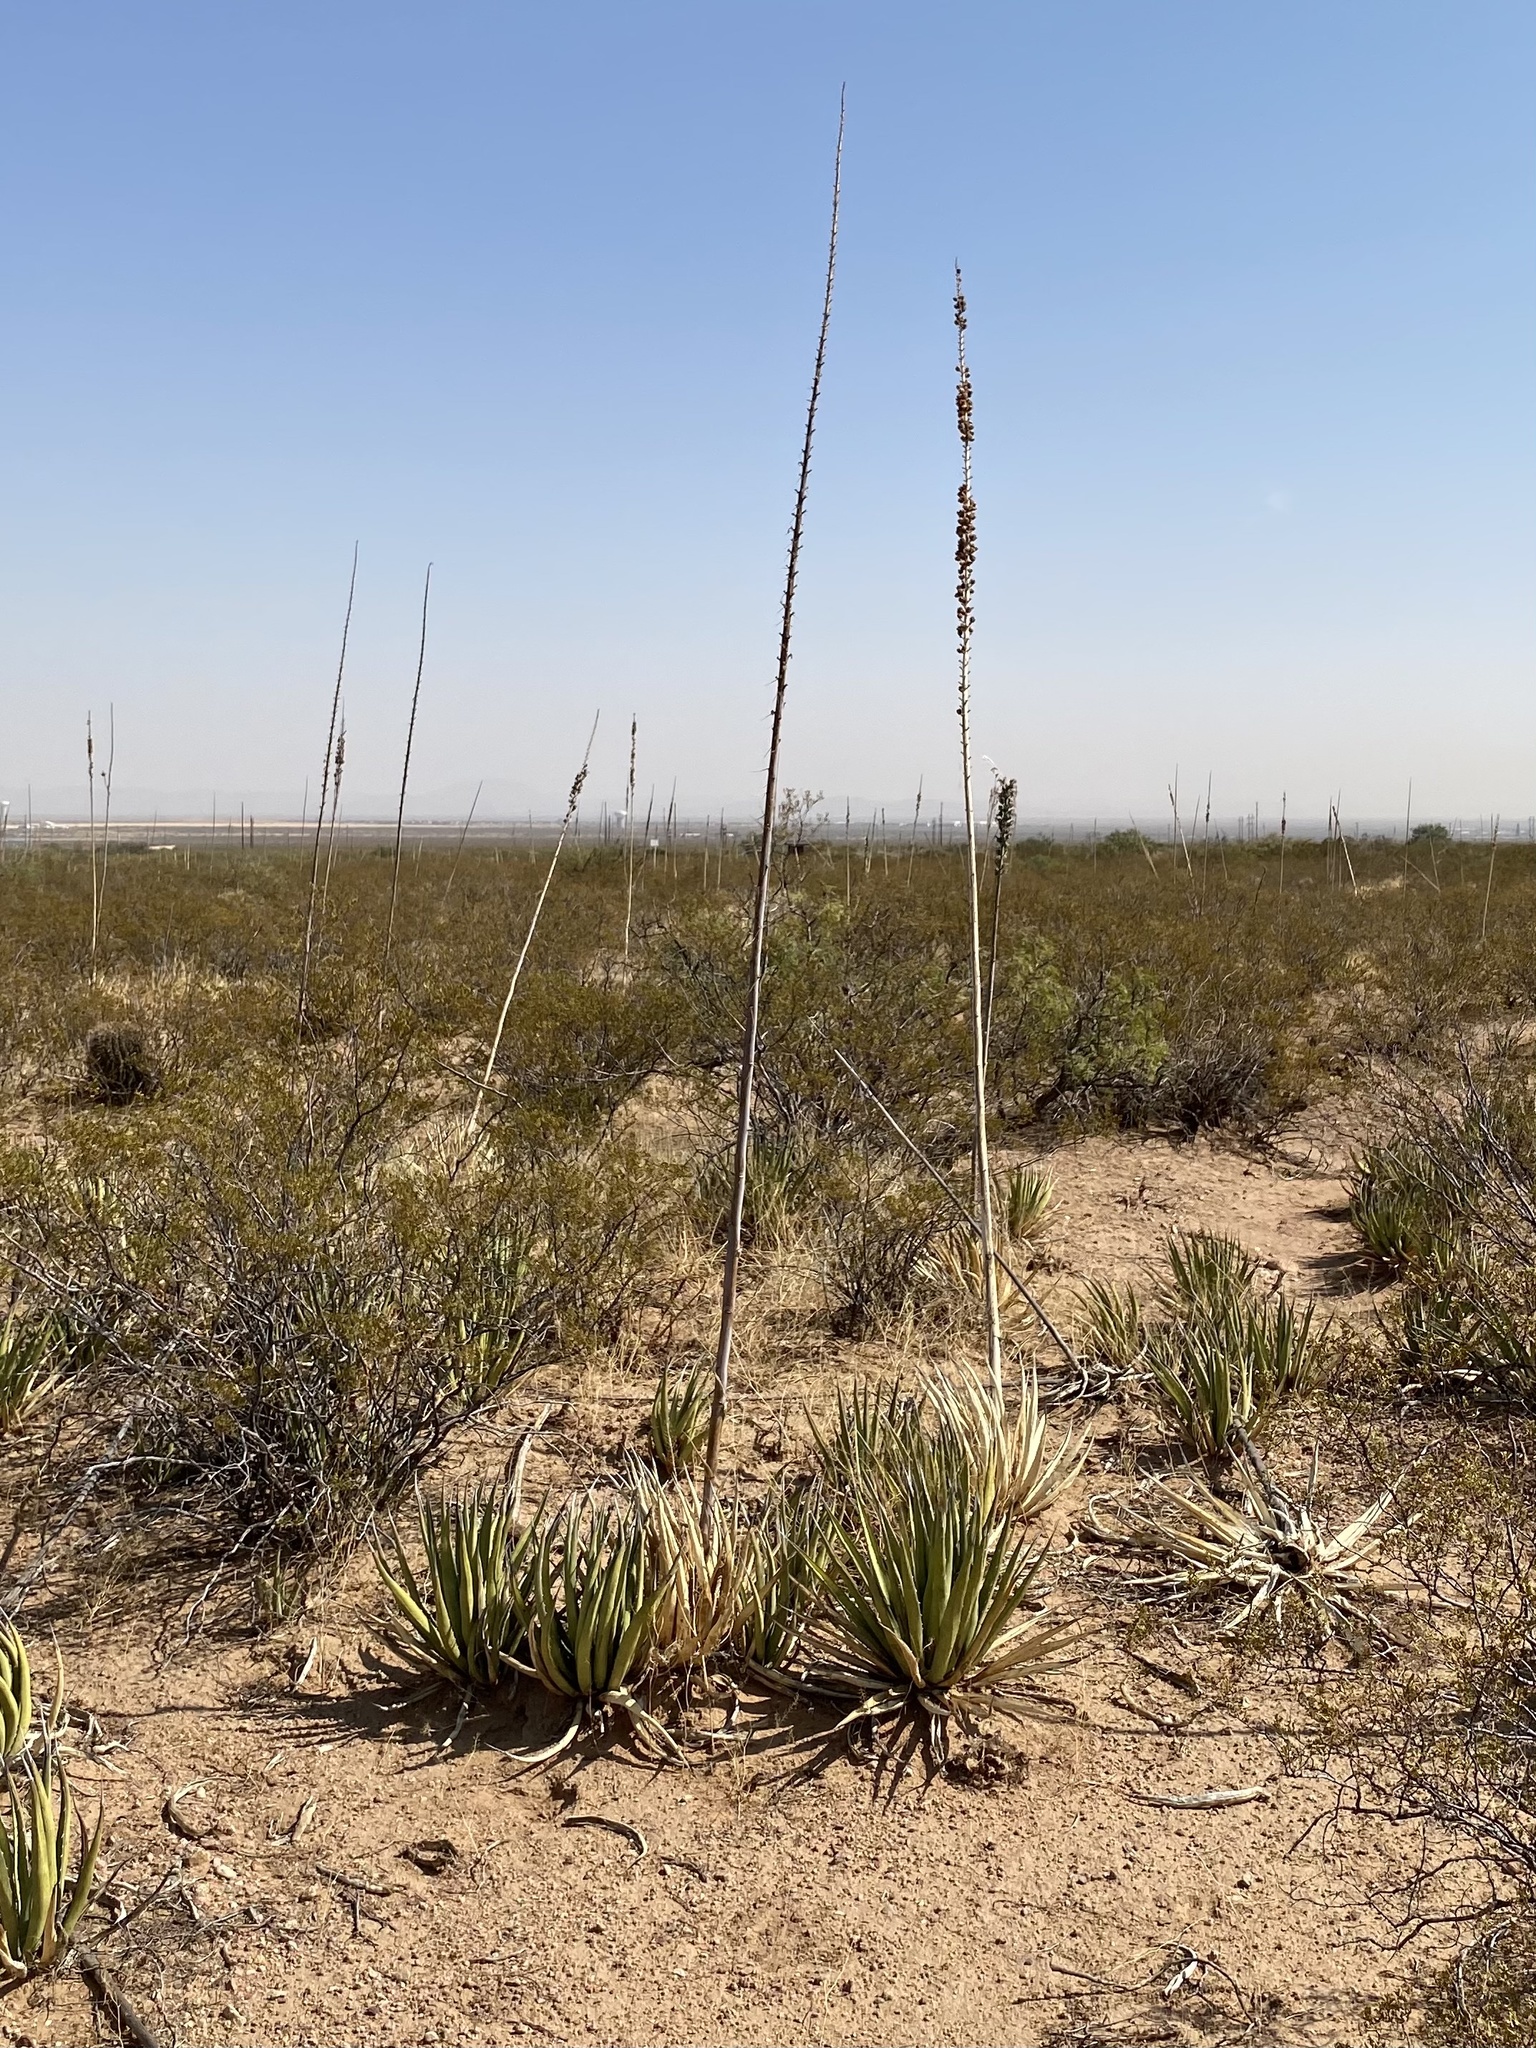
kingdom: Plantae
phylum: Tracheophyta
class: Liliopsida
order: Asparagales
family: Asparagaceae
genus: Agave
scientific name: Agave lechuguilla
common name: Lecheguilla agave
